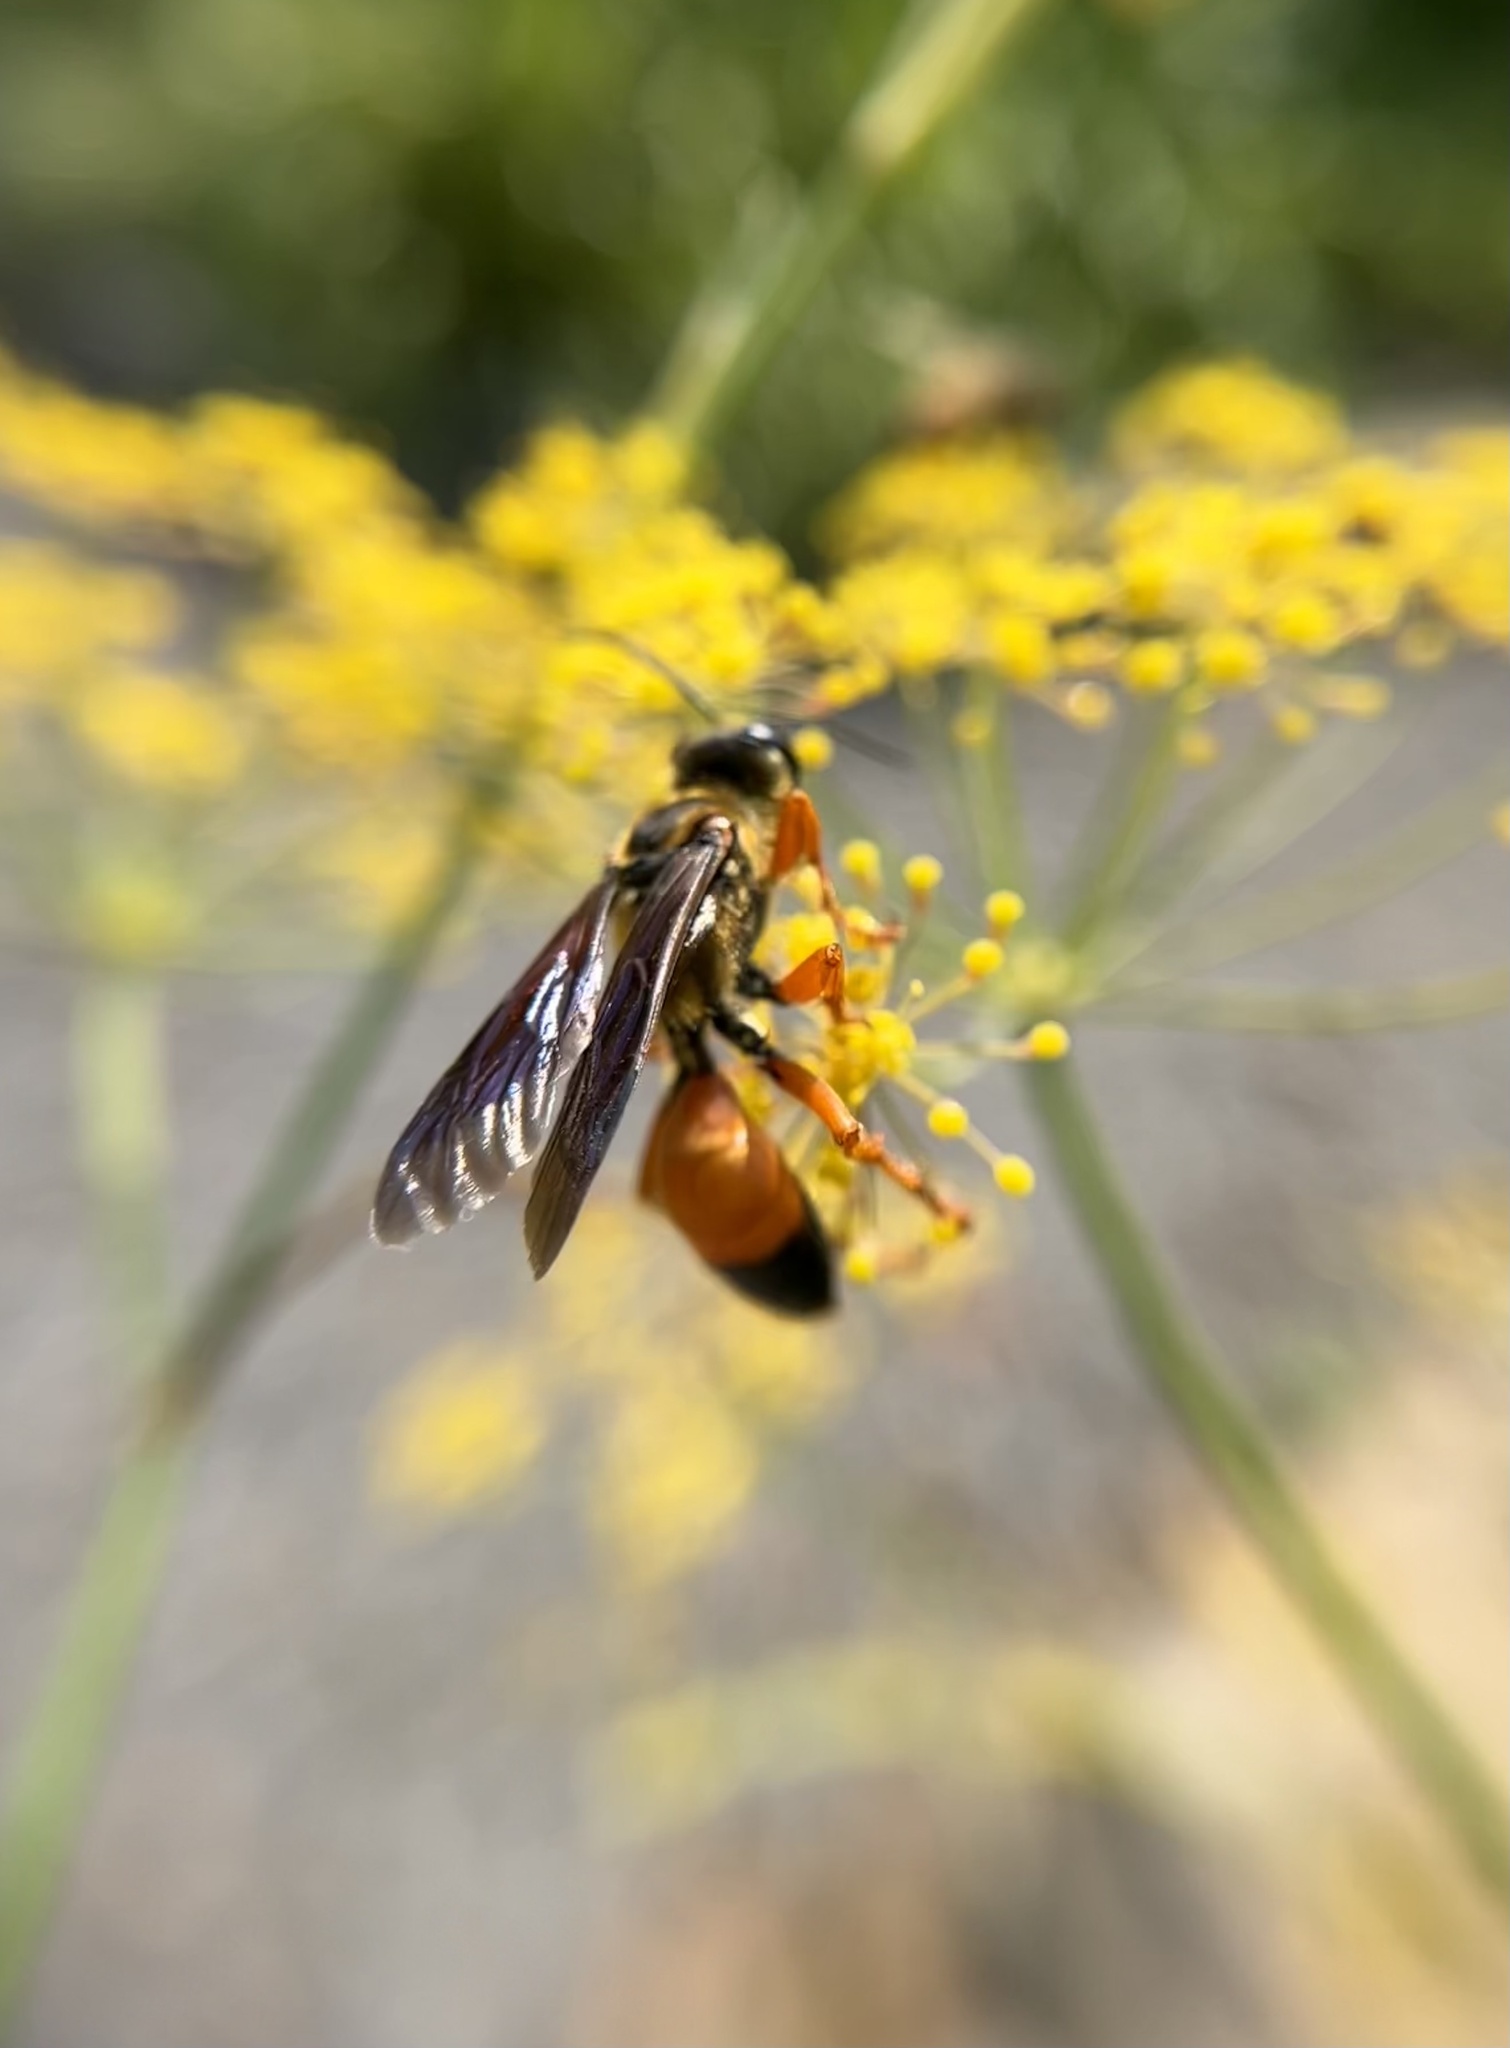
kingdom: Animalia
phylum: Arthropoda
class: Insecta
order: Hymenoptera
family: Sphecidae
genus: Sphex
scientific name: Sphex ichneumoneus
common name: Great golden digger wasp
